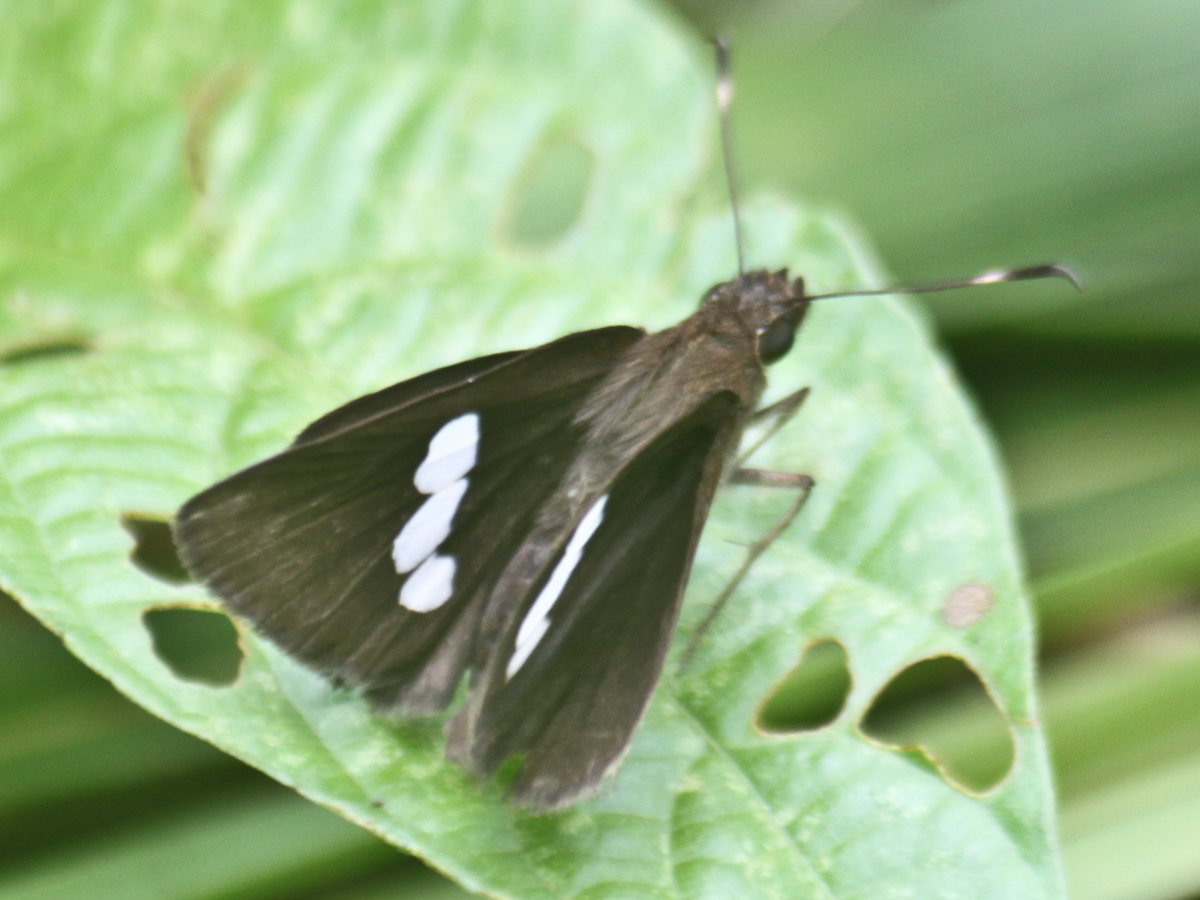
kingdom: Animalia
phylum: Arthropoda
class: Insecta
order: Lepidoptera
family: Hesperiidae
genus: Notocrypta
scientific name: Notocrypta paralysos
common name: Common banded demon
